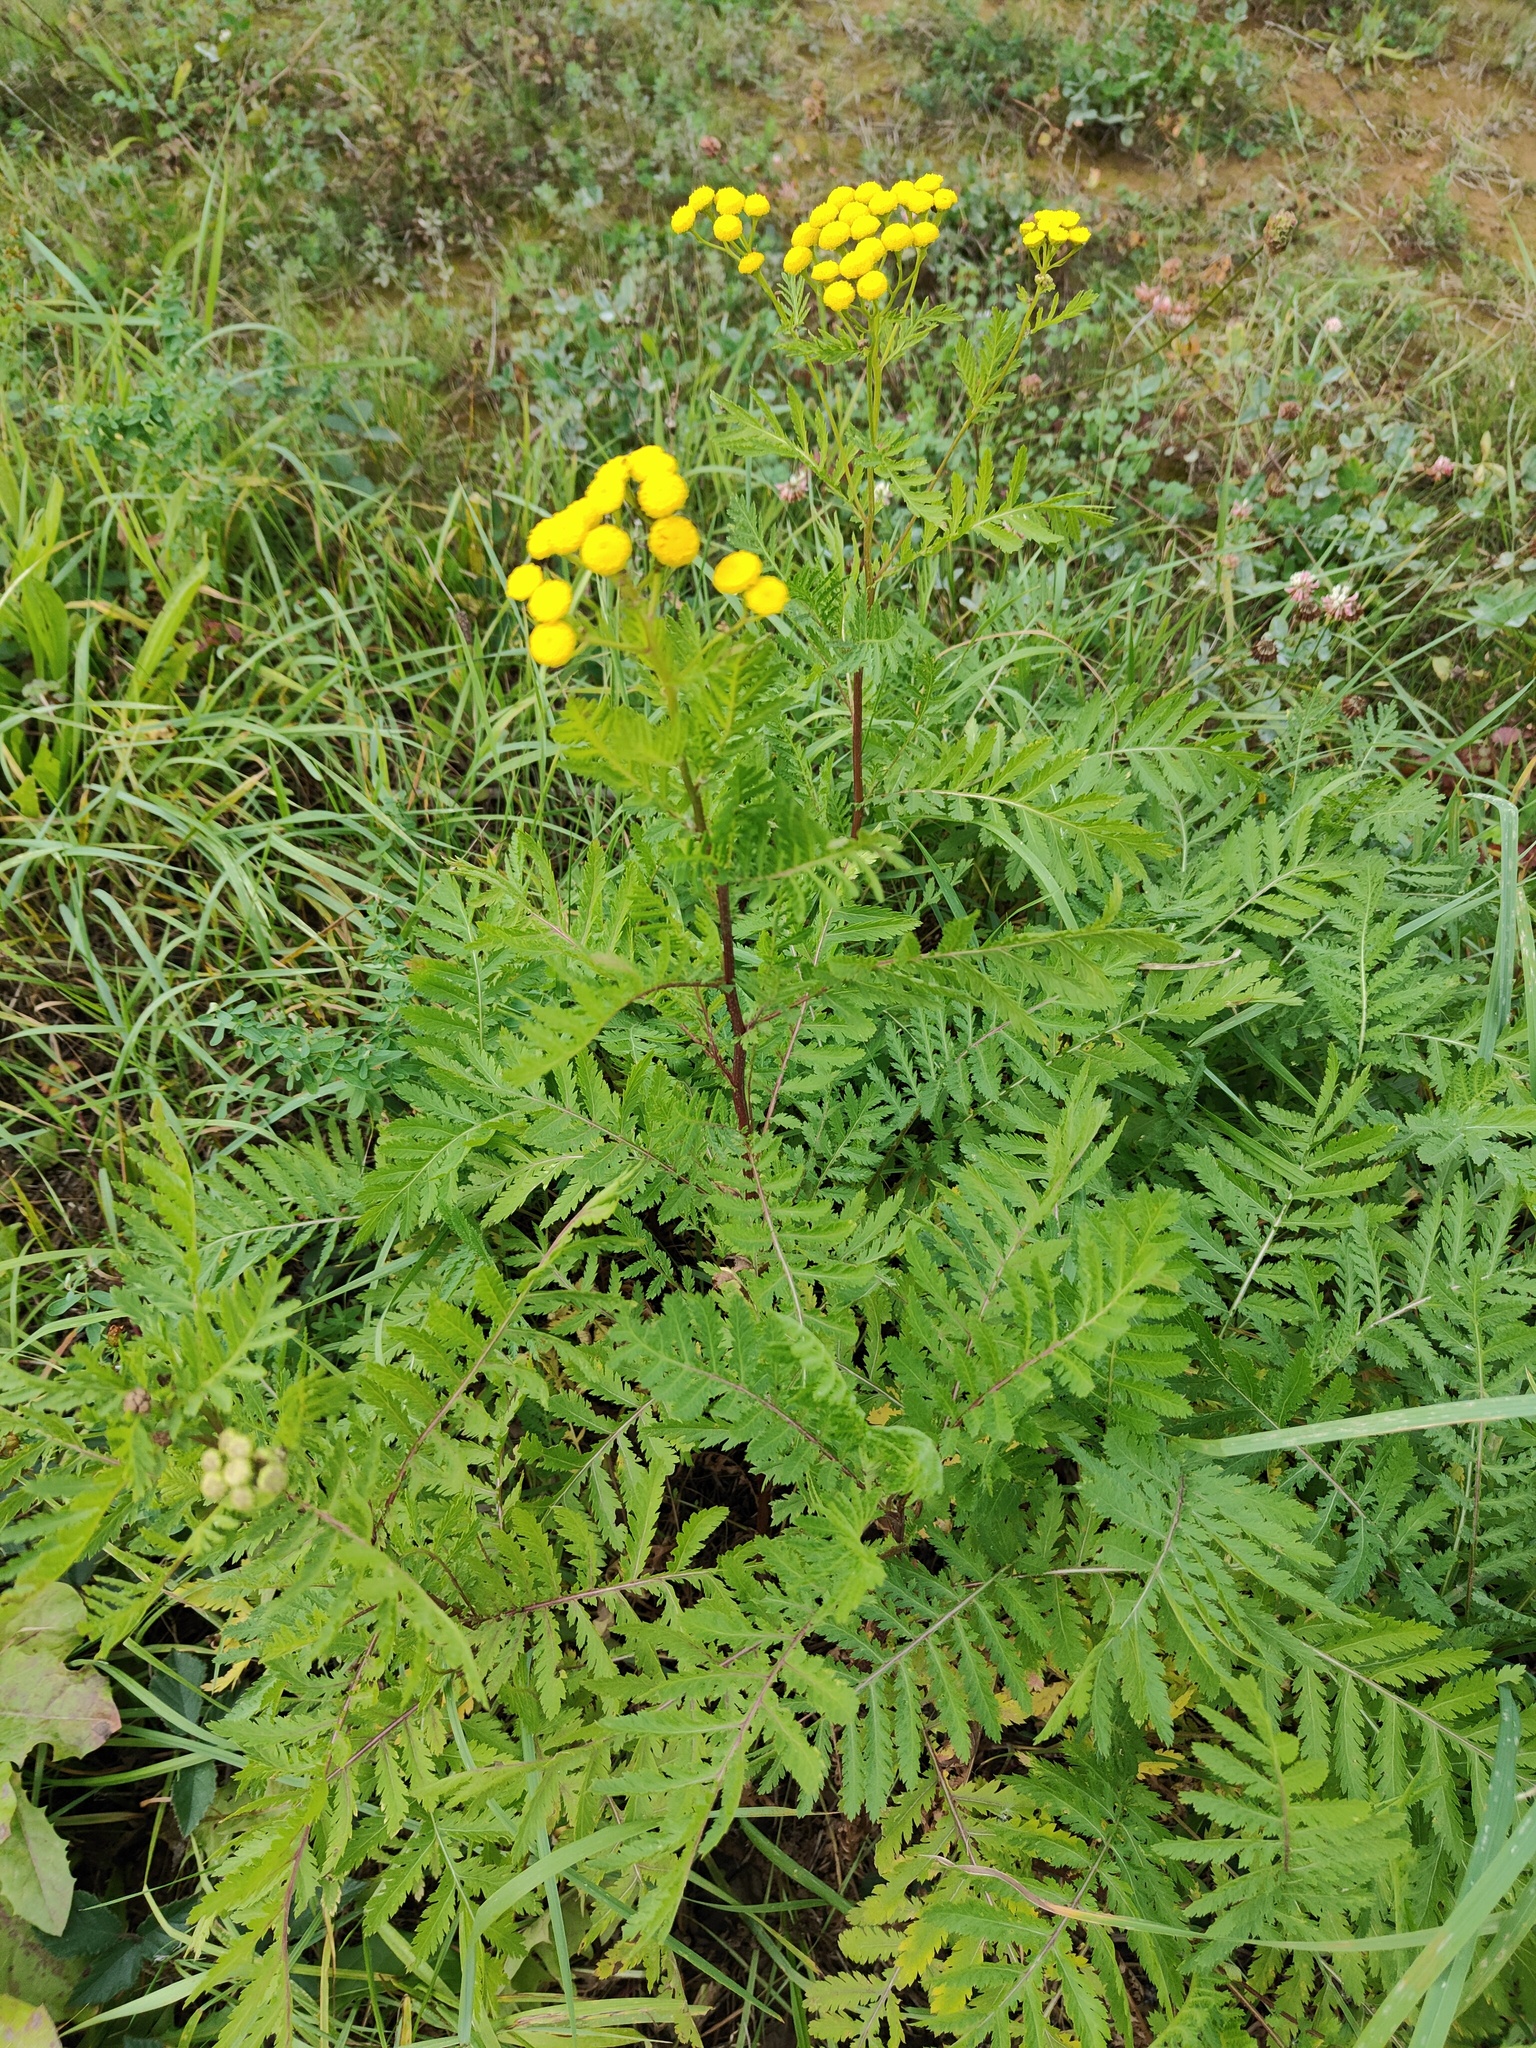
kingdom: Plantae
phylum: Tracheophyta
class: Magnoliopsida
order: Asterales
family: Asteraceae
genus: Tanacetum
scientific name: Tanacetum vulgare
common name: Common tansy
